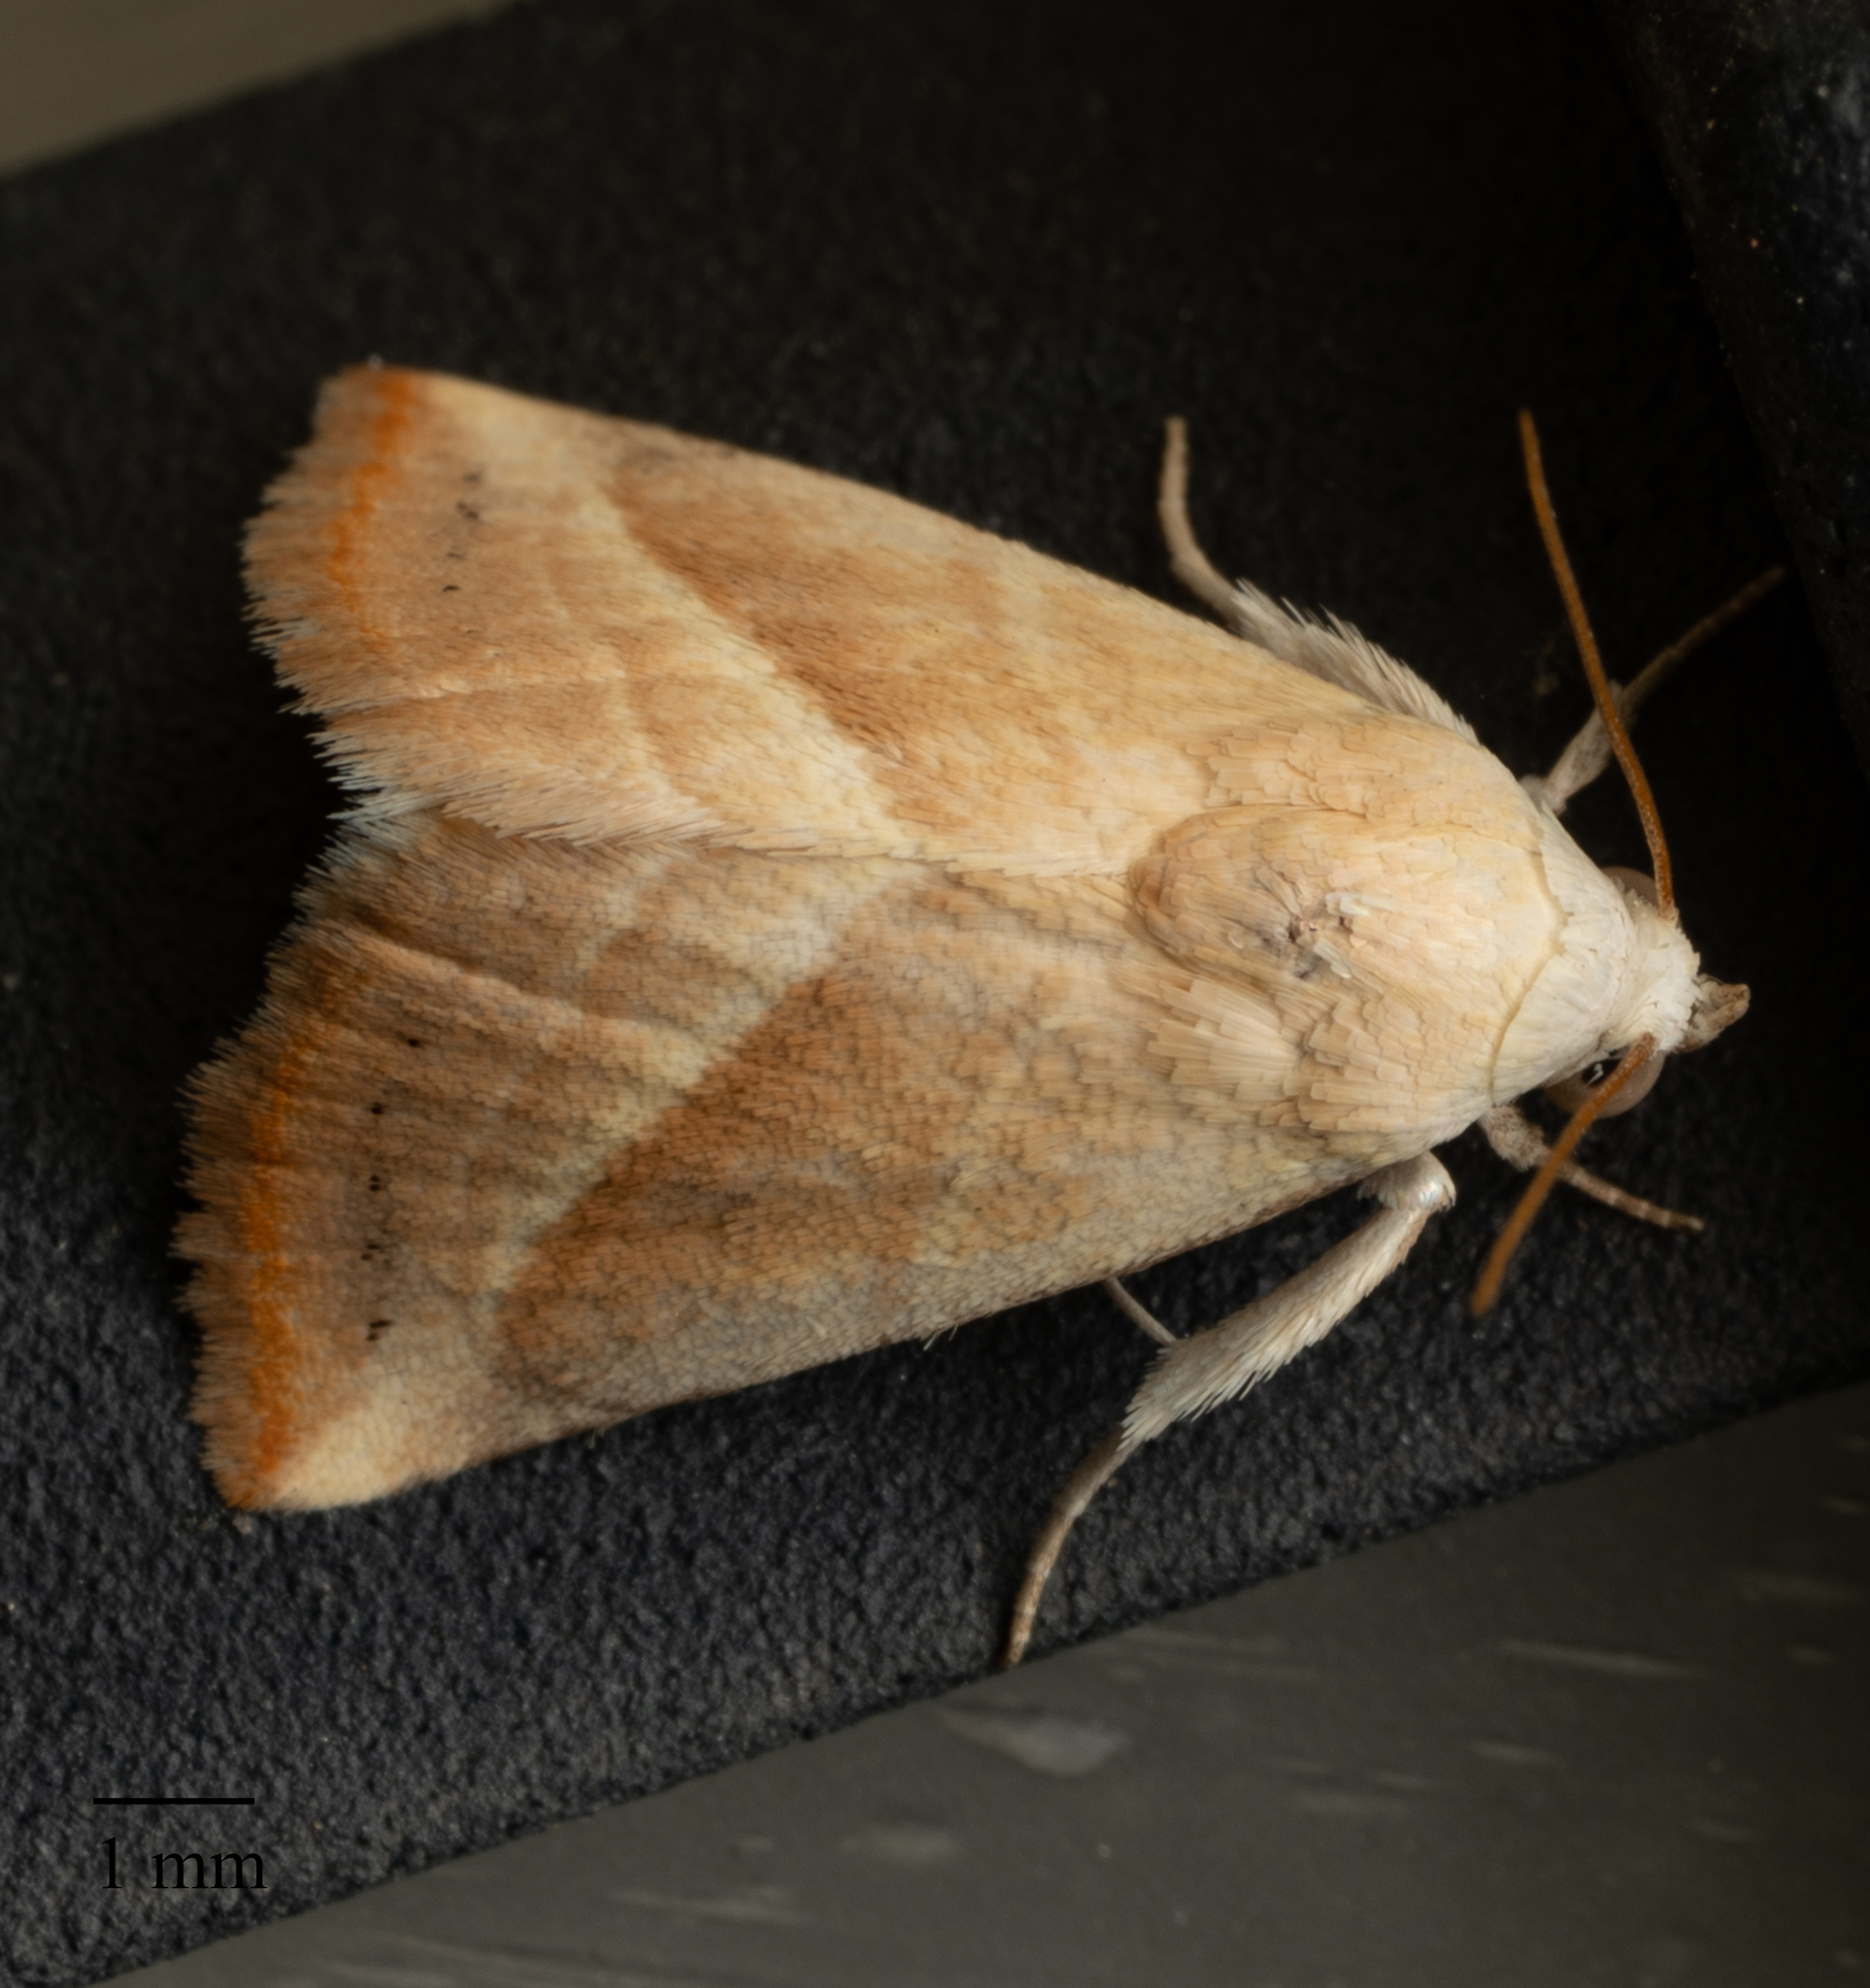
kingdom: Animalia
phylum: Arthropoda
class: Insecta
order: Lepidoptera
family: Noctuidae
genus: Eublemma
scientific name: Eublemma recta
